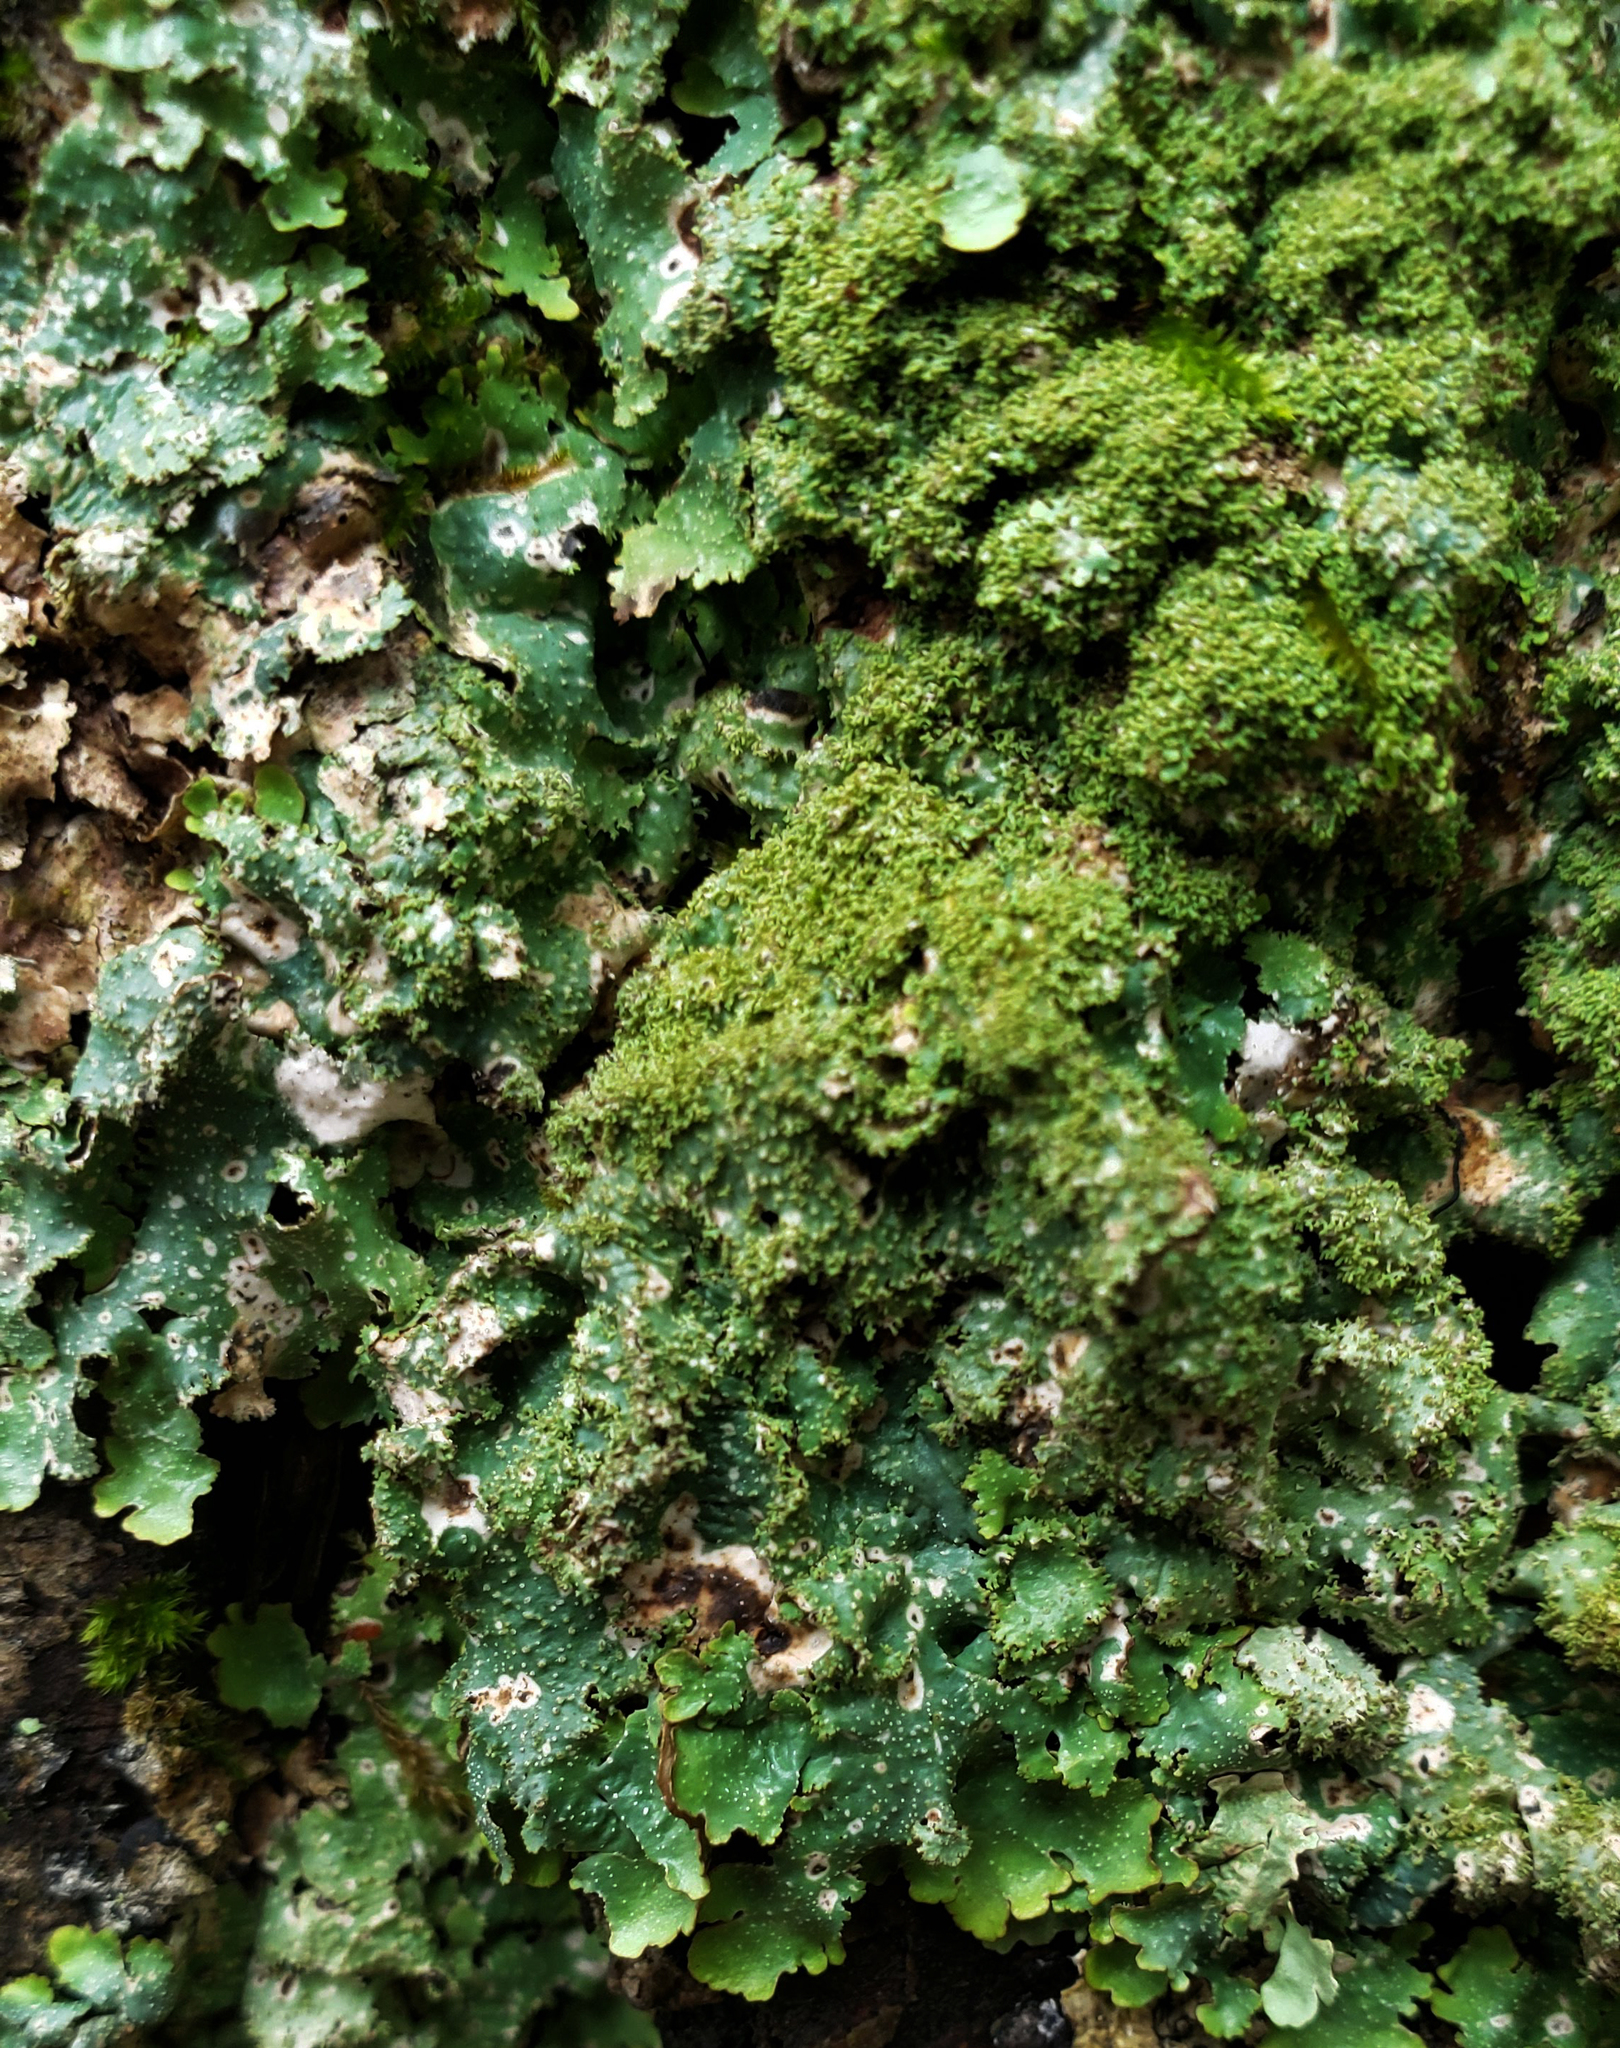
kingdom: Fungi
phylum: Ascomycota
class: Lecanoromycetes
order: Lecanorales
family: Parmeliaceae
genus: Punctelia
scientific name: Punctelia rudecta
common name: Rough speckled shield lichen
